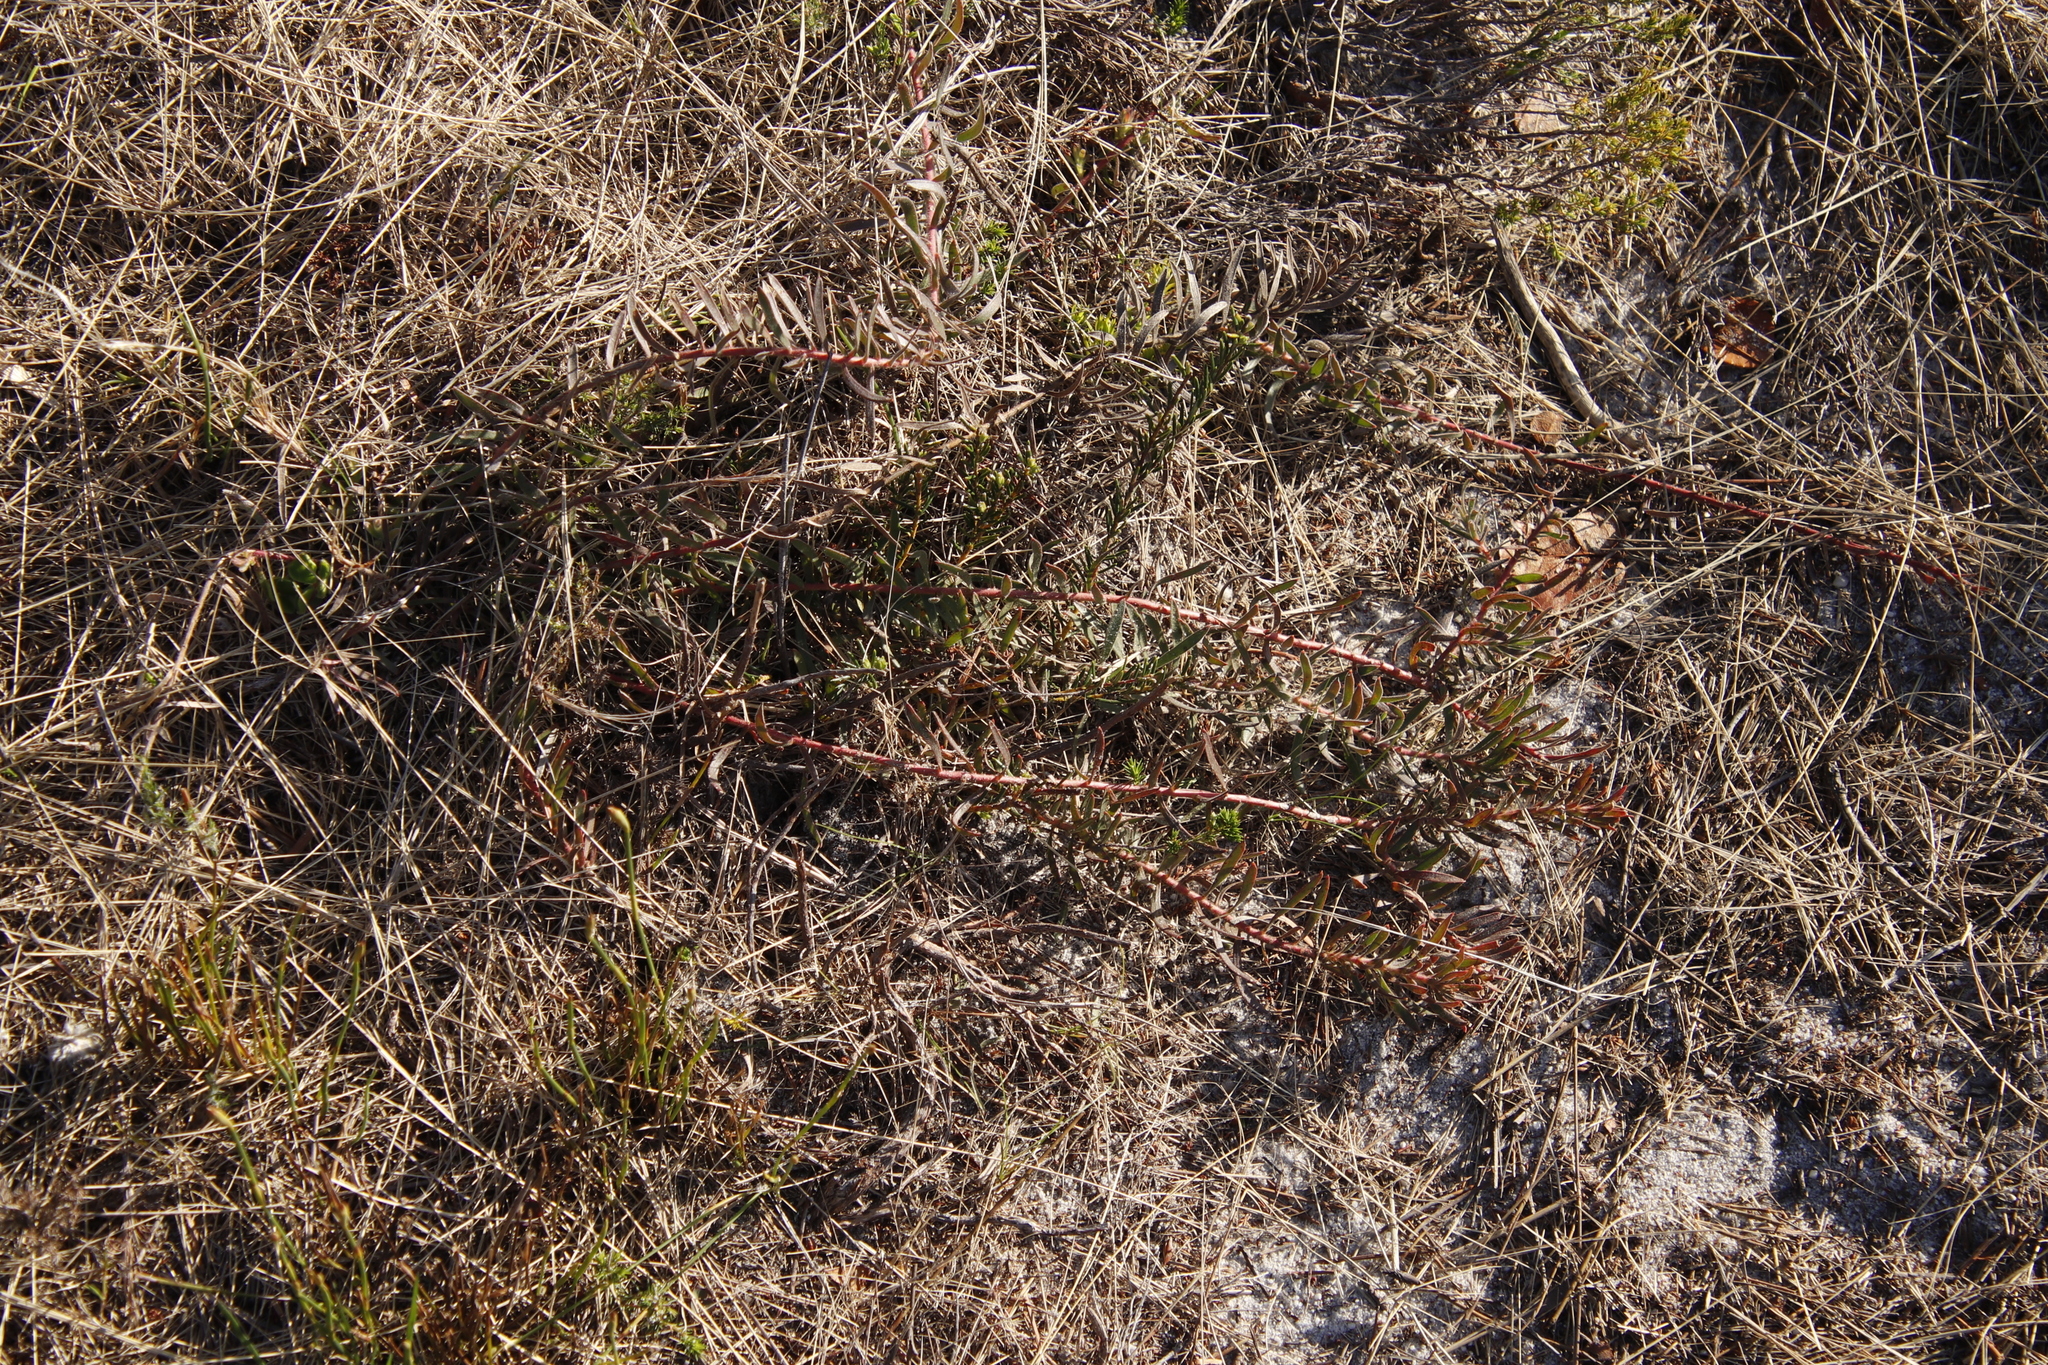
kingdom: Plantae
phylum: Tracheophyta
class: Magnoliopsida
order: Proteales
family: Proteaceae
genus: Leucospermum
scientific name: Leucospermum prostratum
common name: Yellow-trailing pincushion
